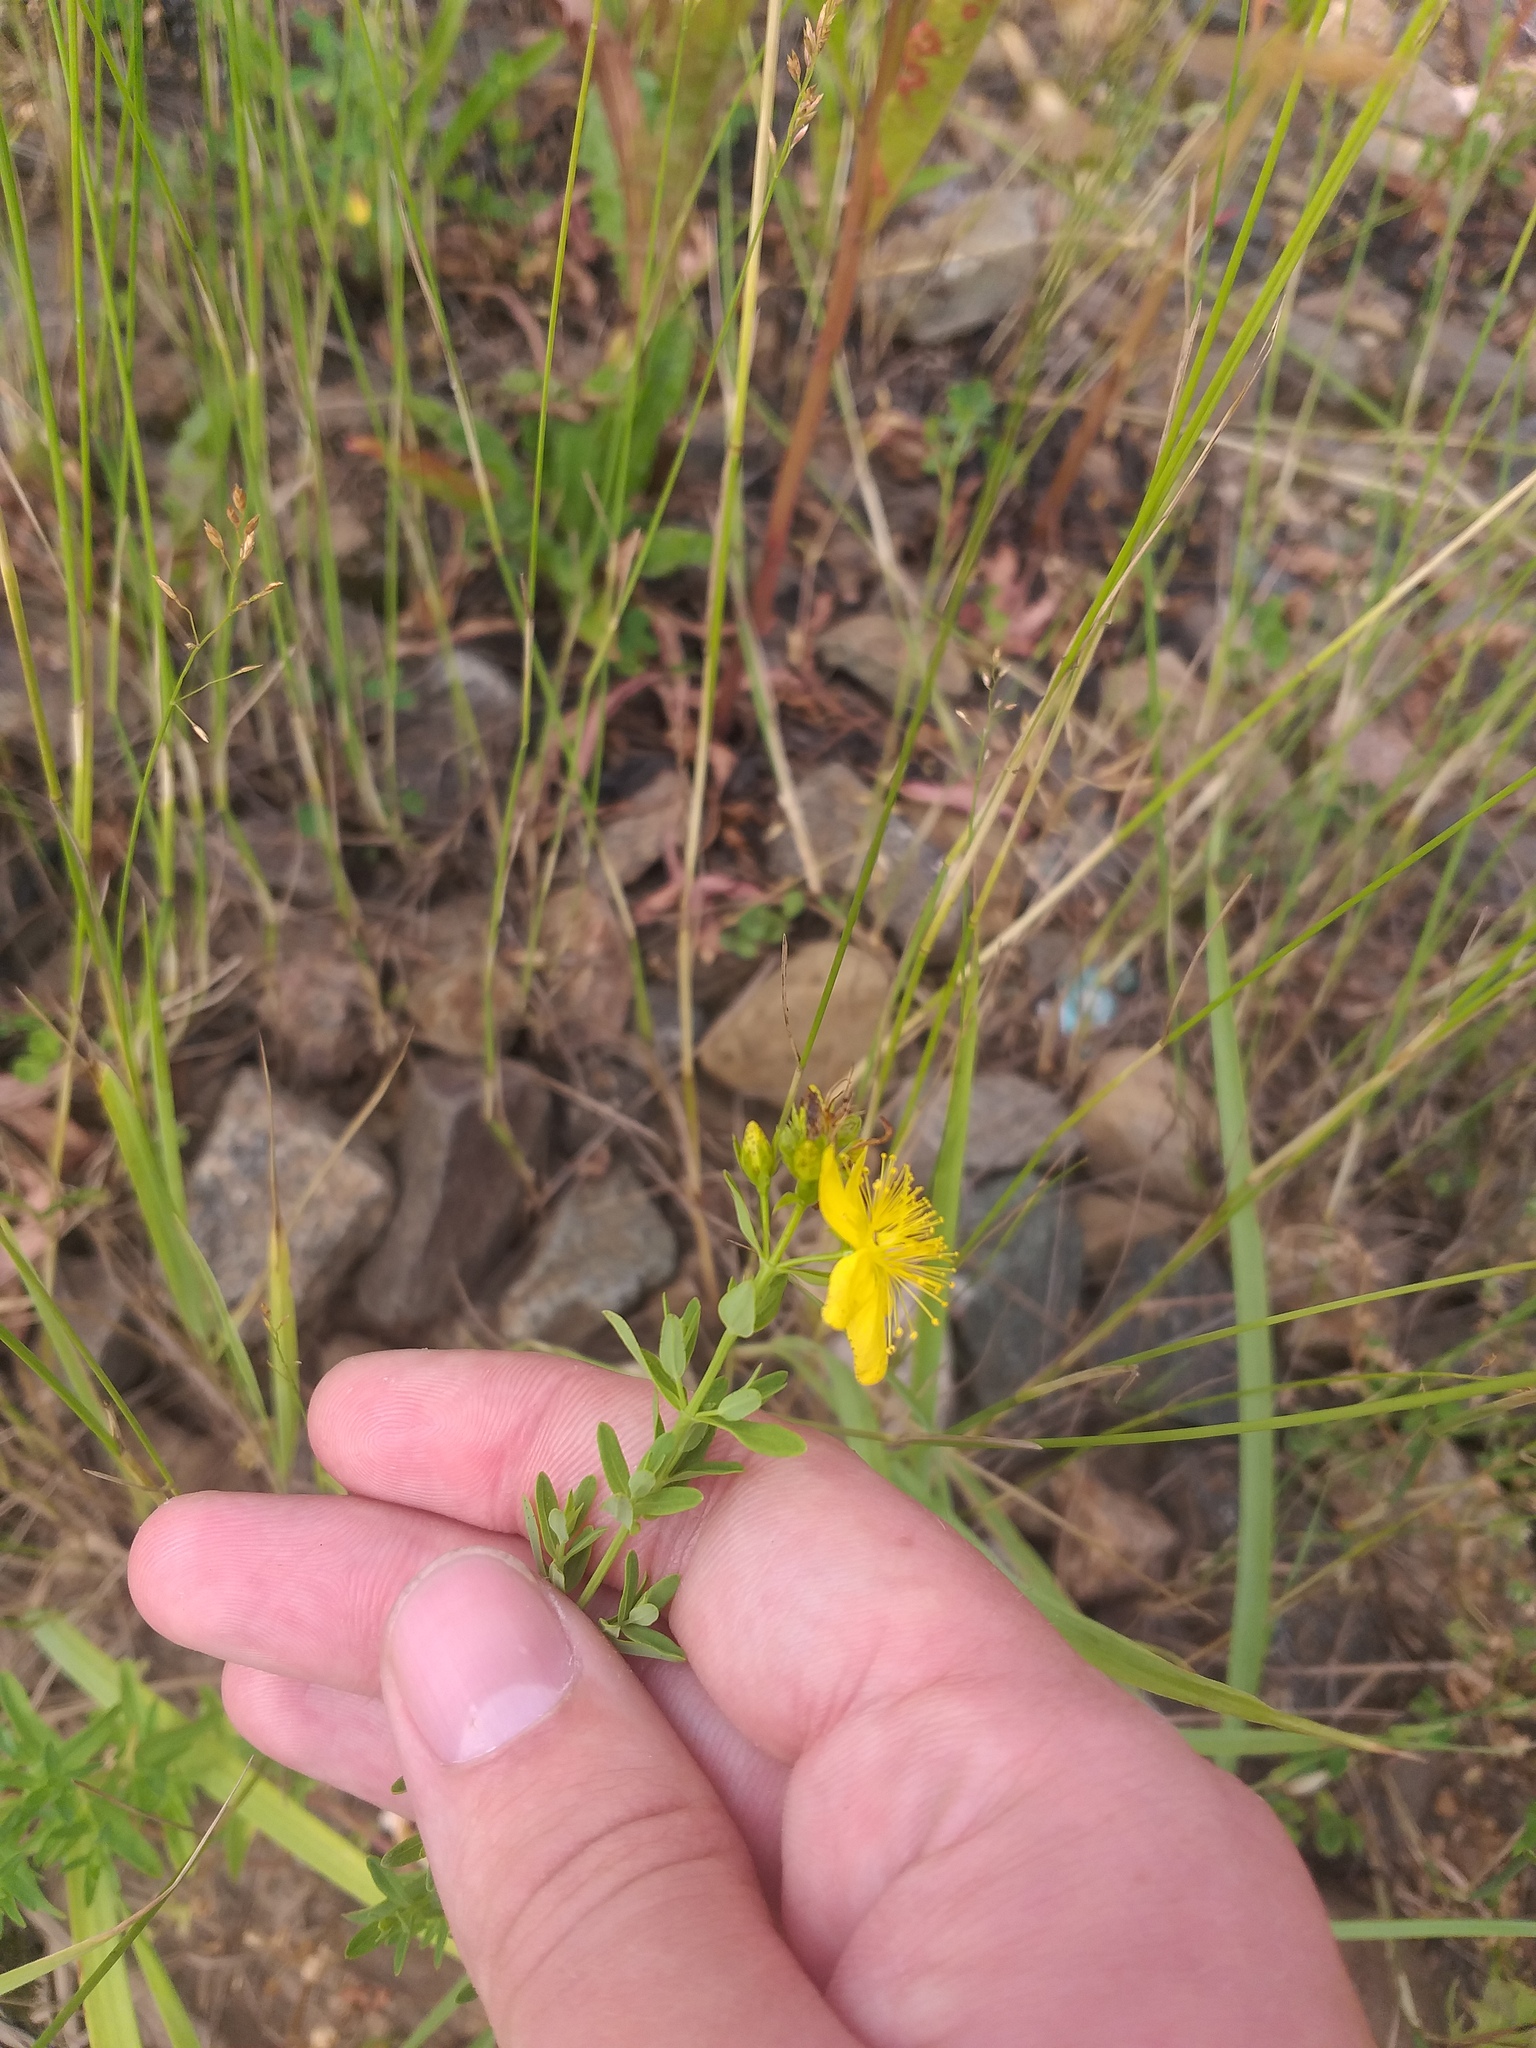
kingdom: Plantae
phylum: Tracheophyta
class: Magnoliopsida
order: Malpighiales
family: Hypericaceae
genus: Hypericum
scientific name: Hypericum perforatum
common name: Common st. johnswort
